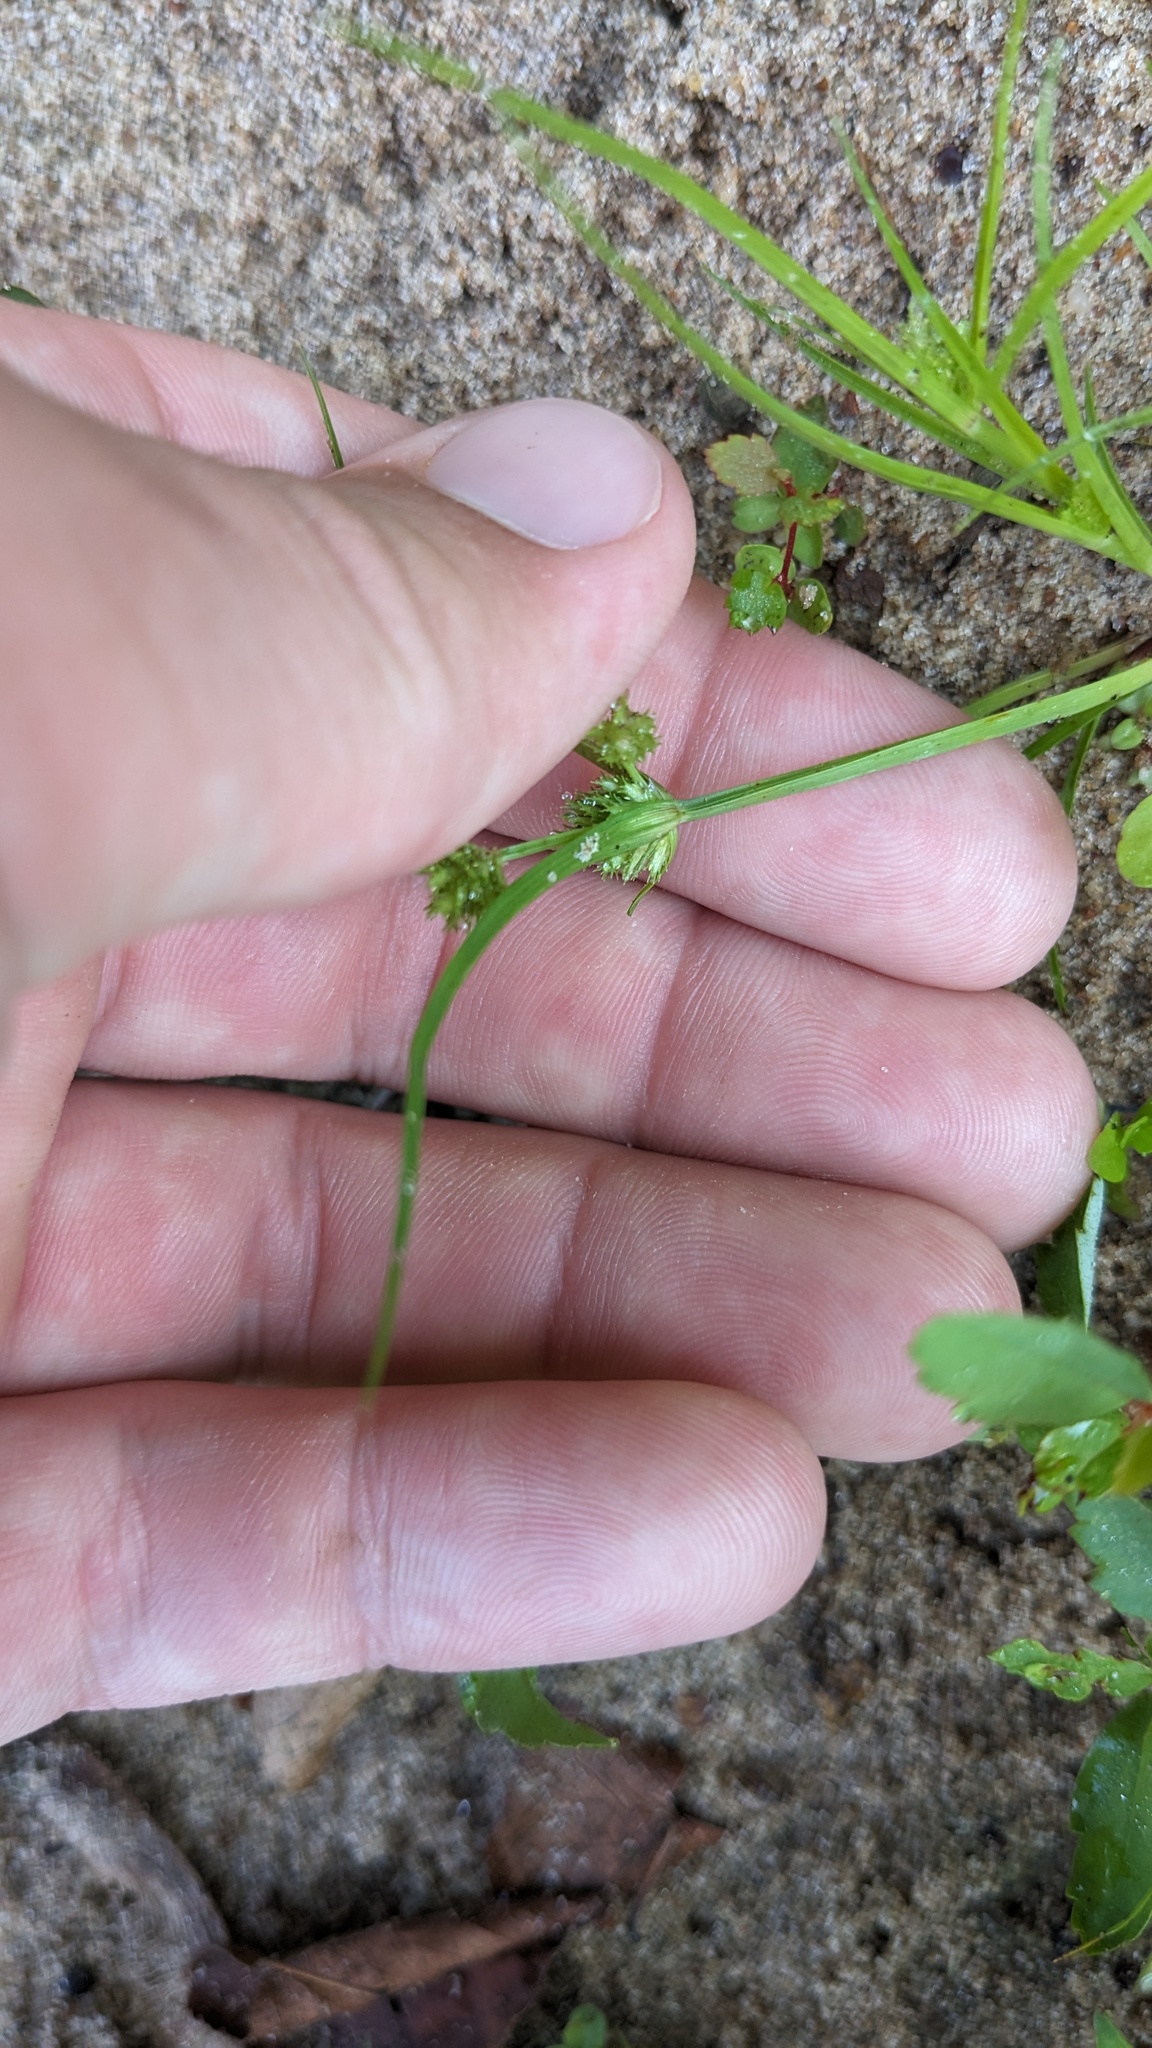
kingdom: Plantae
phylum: Tracheophyta
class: Liliopsida
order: Poales
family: Cyperaceae
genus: Cyperus
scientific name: Cyperus squarrosus
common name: Awned cyperus
